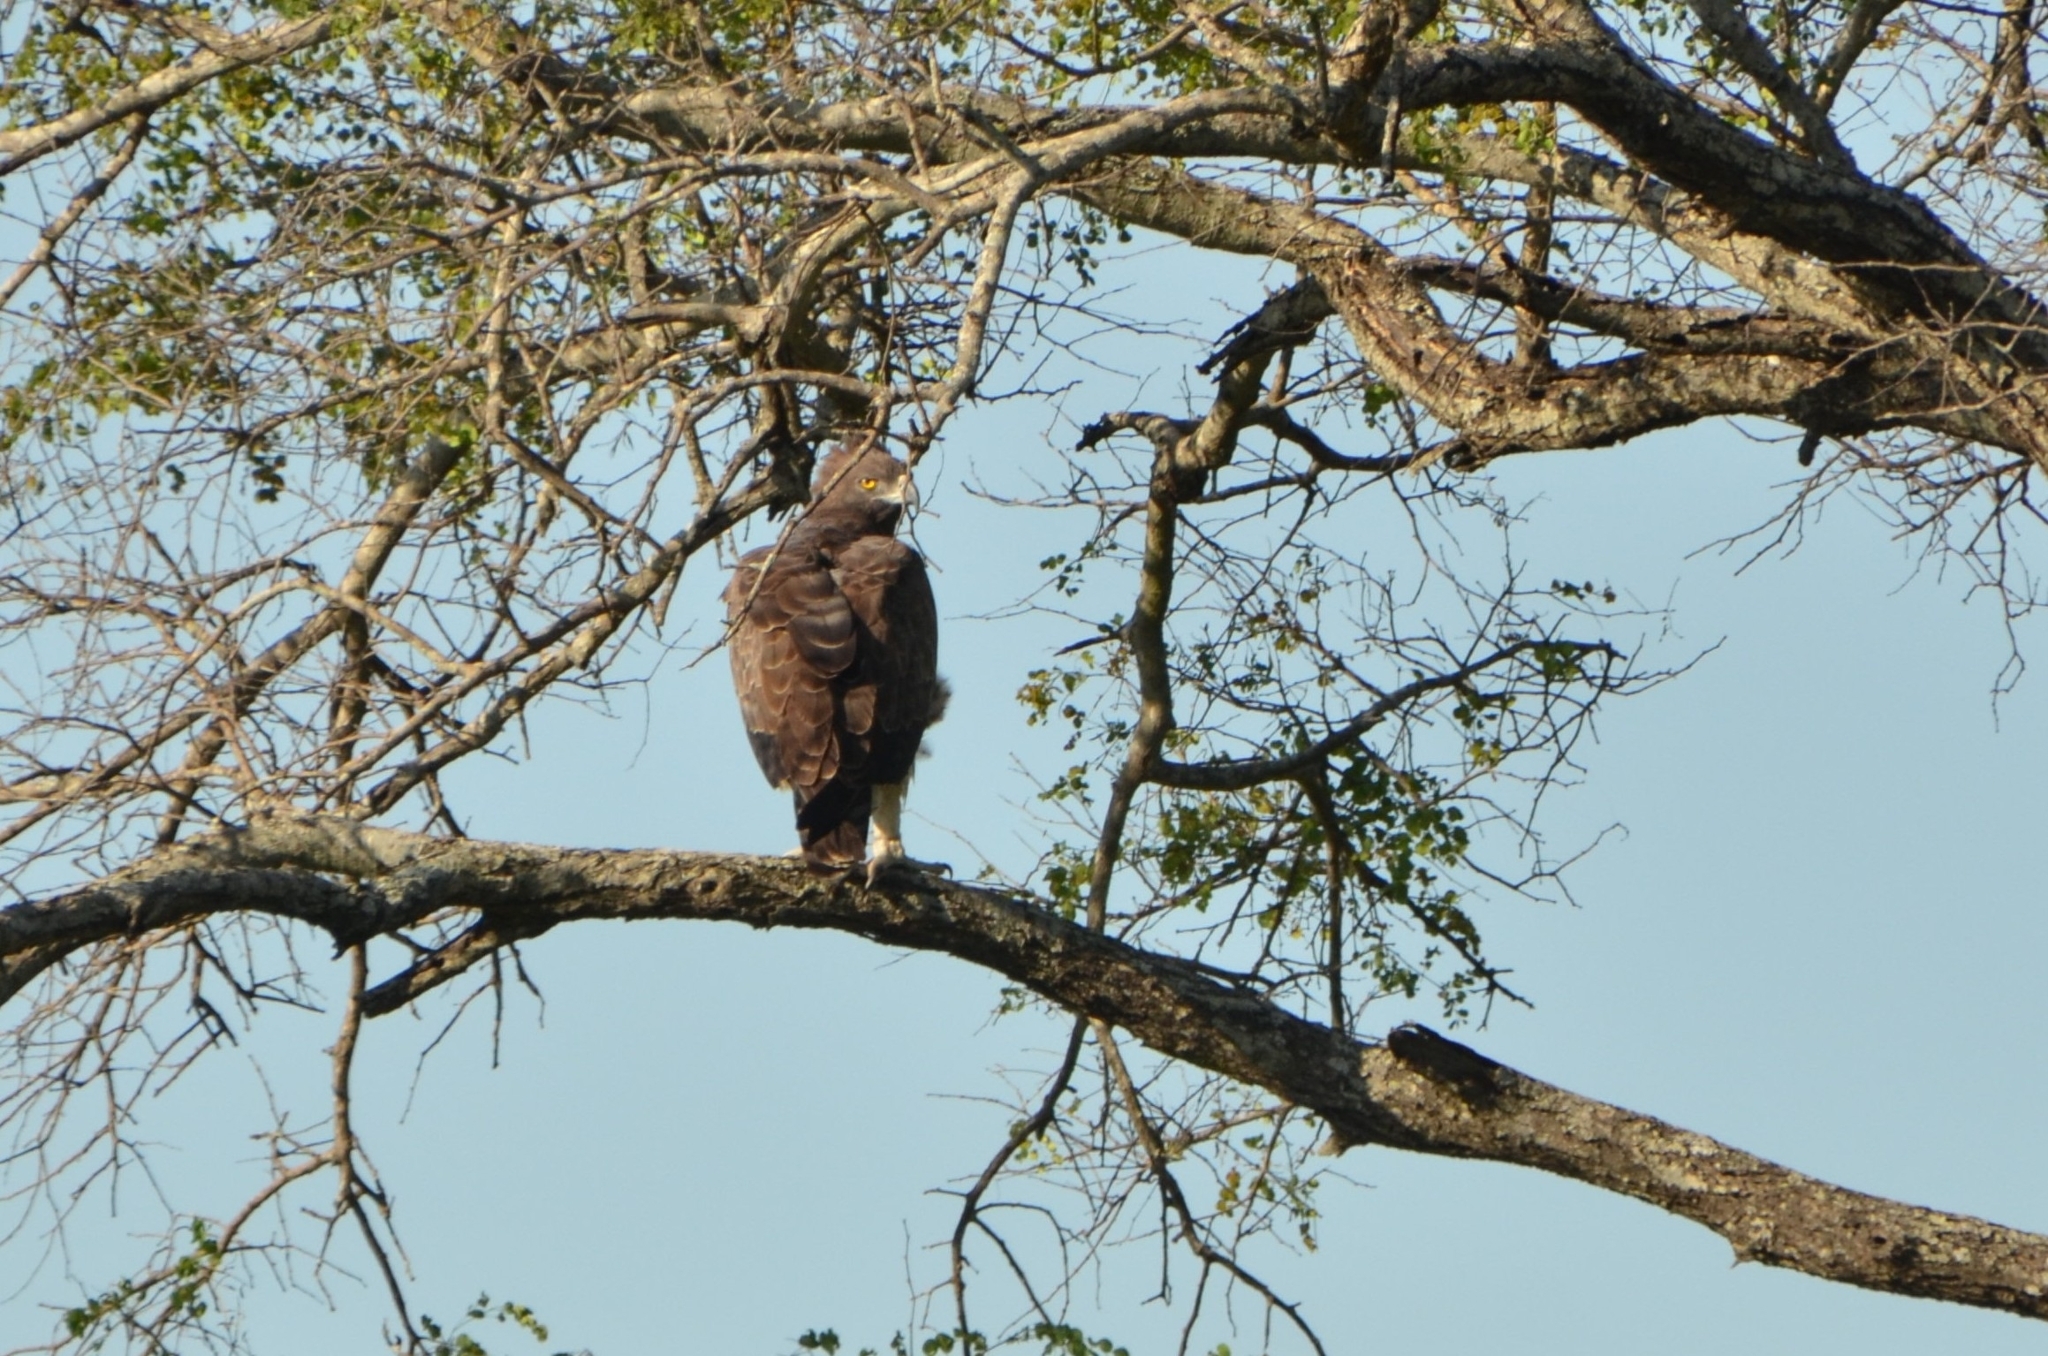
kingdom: Animalia
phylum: Chordata
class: Aves
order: Accipitriformes
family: Accipitridae
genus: Polemaetus
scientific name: Polemaetus bellicosus
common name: Martial eagle
